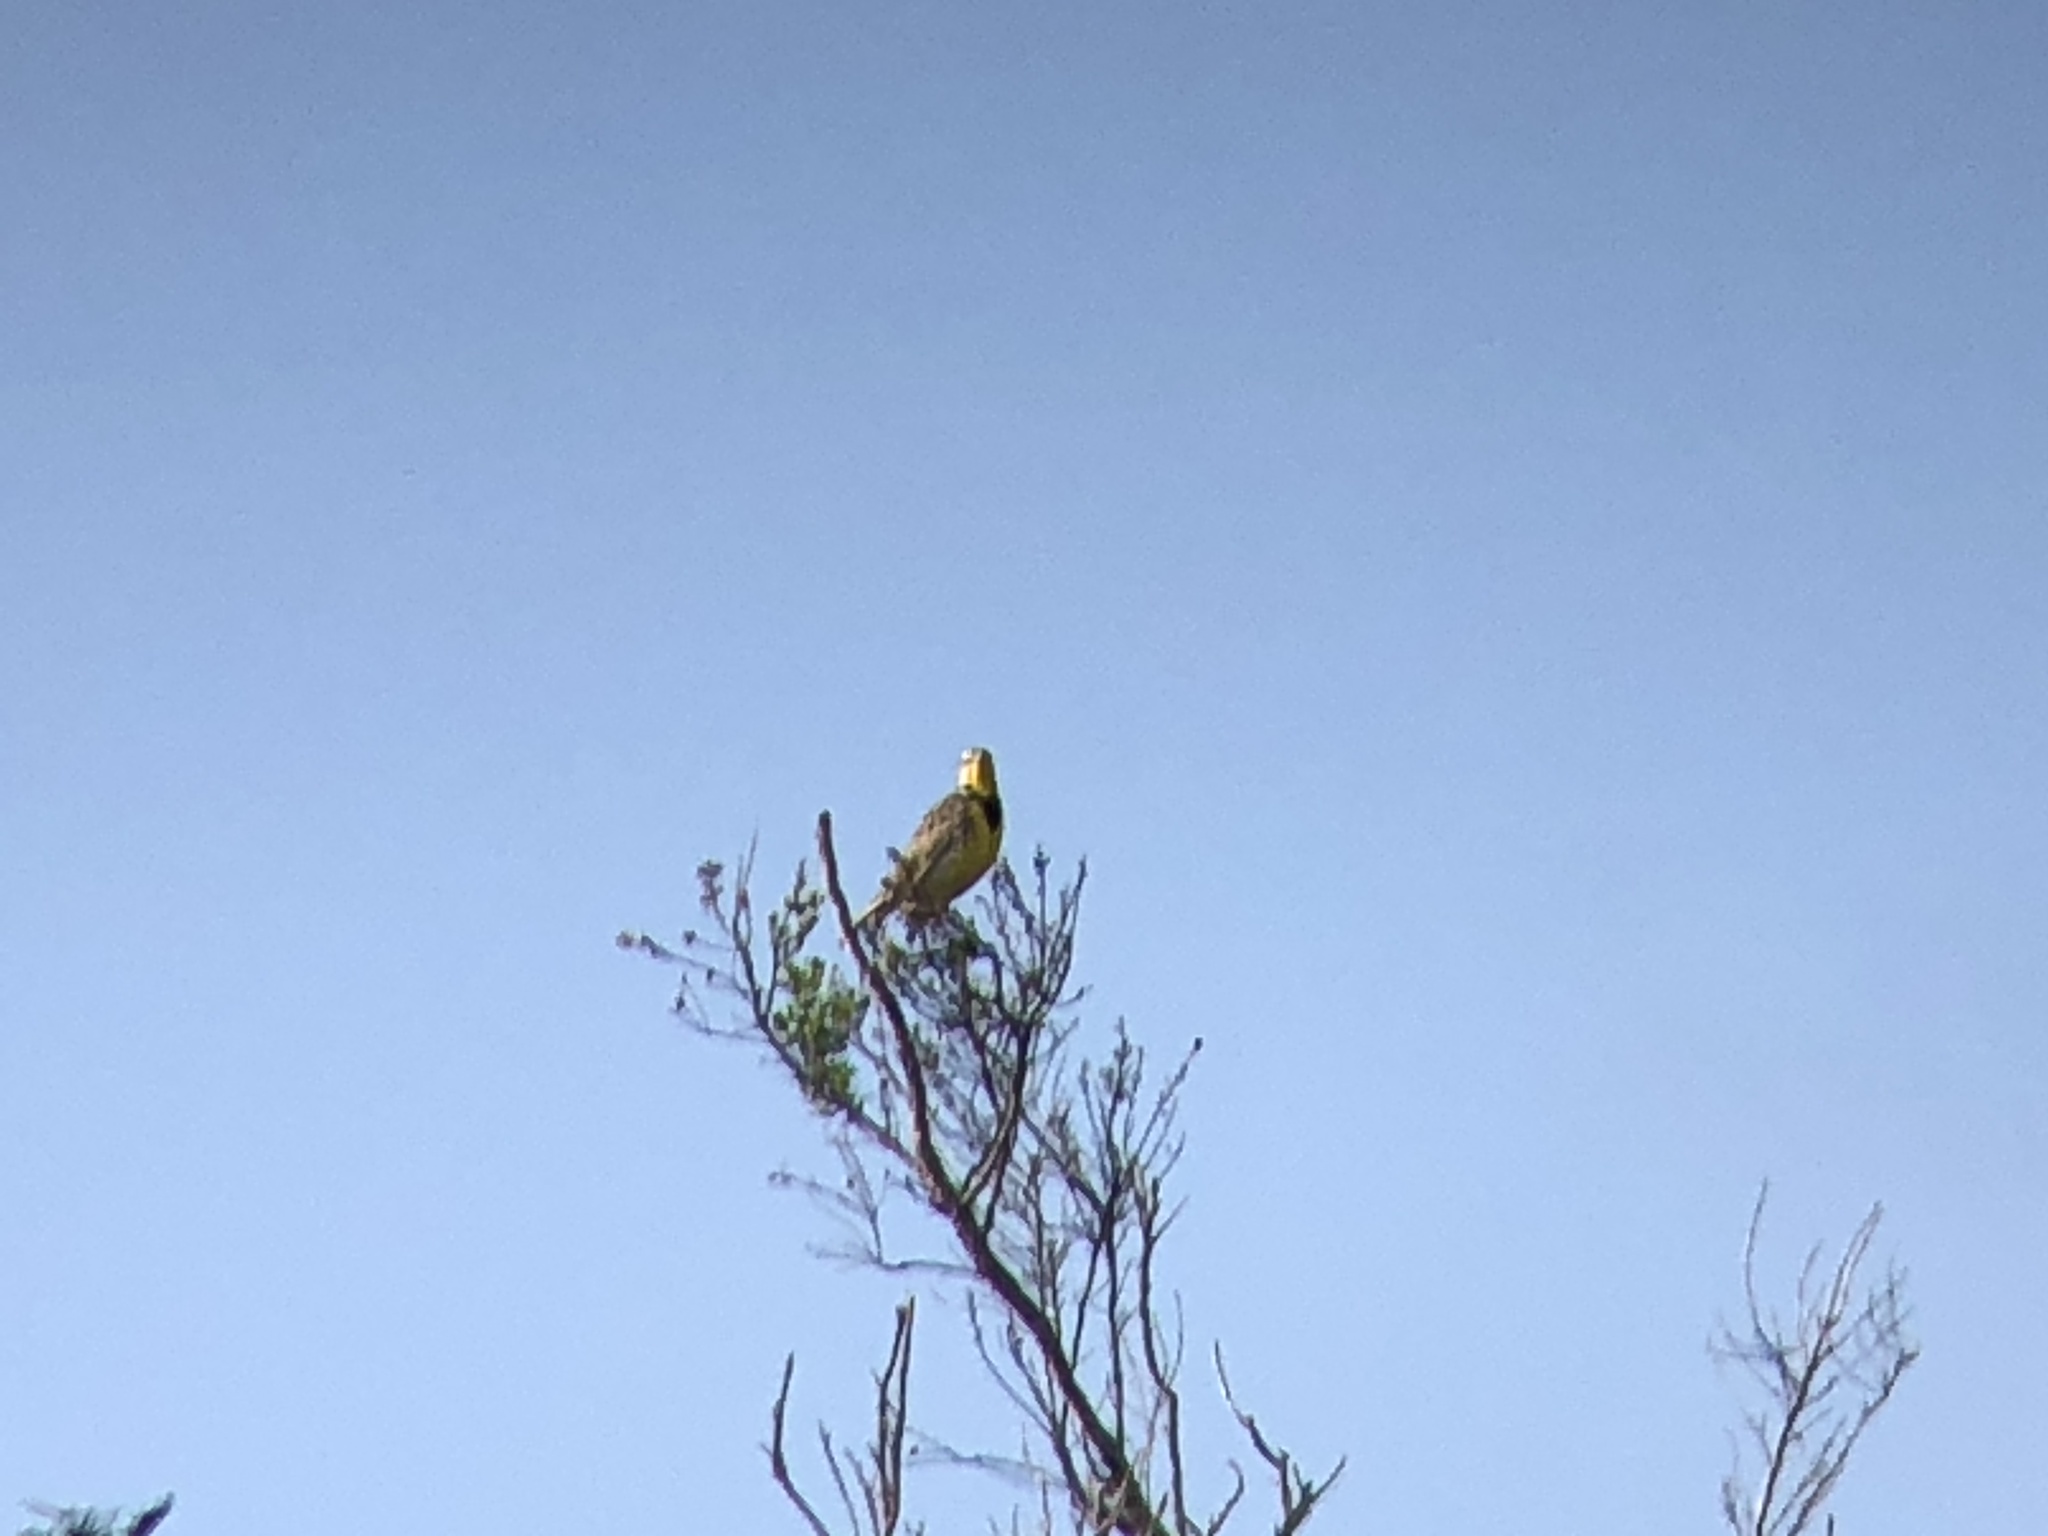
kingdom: Animalia
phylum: Chordata
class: Aves
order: Passeriformes
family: Icteridae
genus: Sturnella
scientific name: Sturnella neglecta
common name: Western meadowlark
